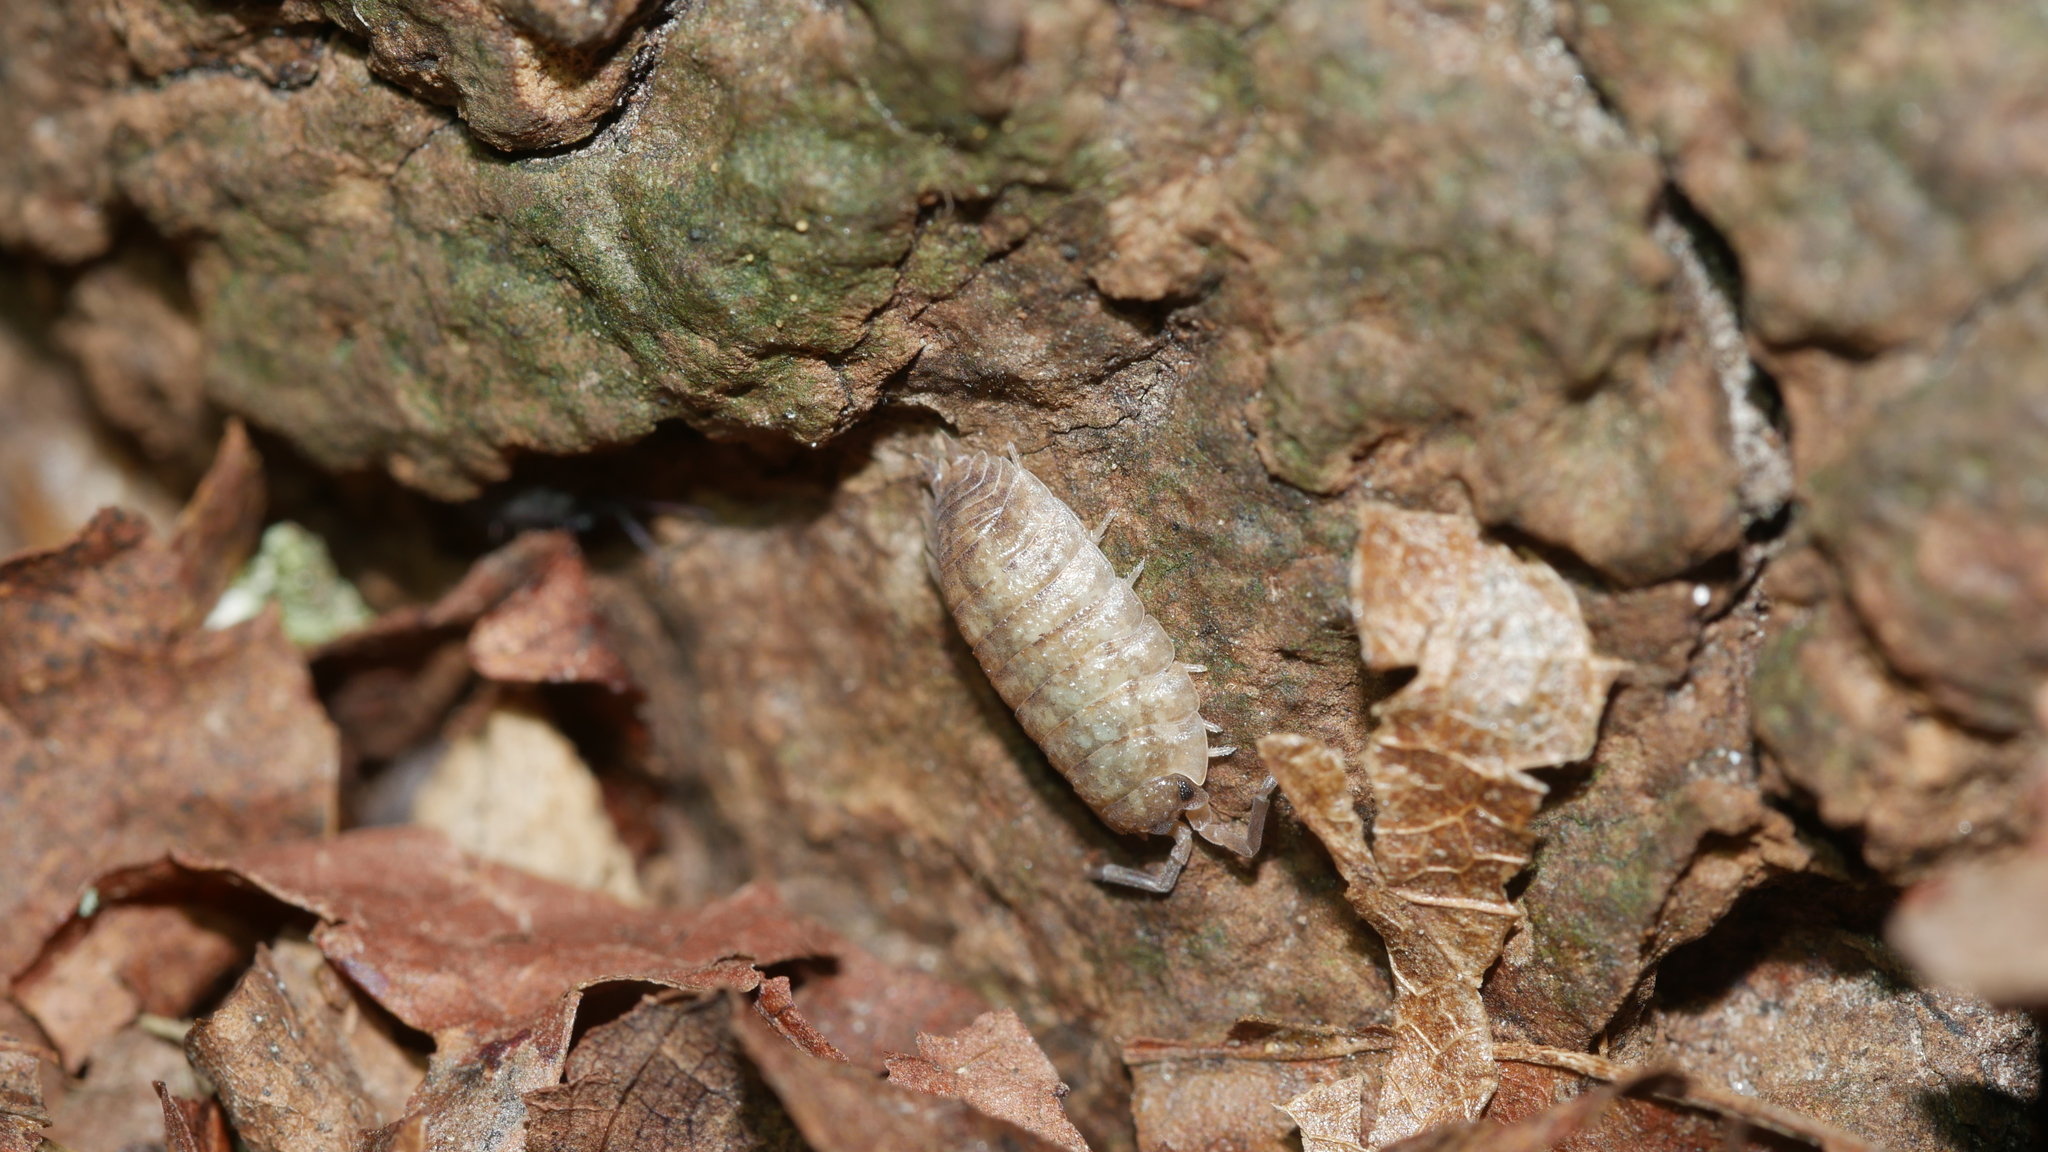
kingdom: Animalia
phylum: Arthropoda
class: Malacostraca
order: Isopoda
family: Porcellionidae
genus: Porcellio
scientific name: Porcellio scaber
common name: Common rough woodlouse
